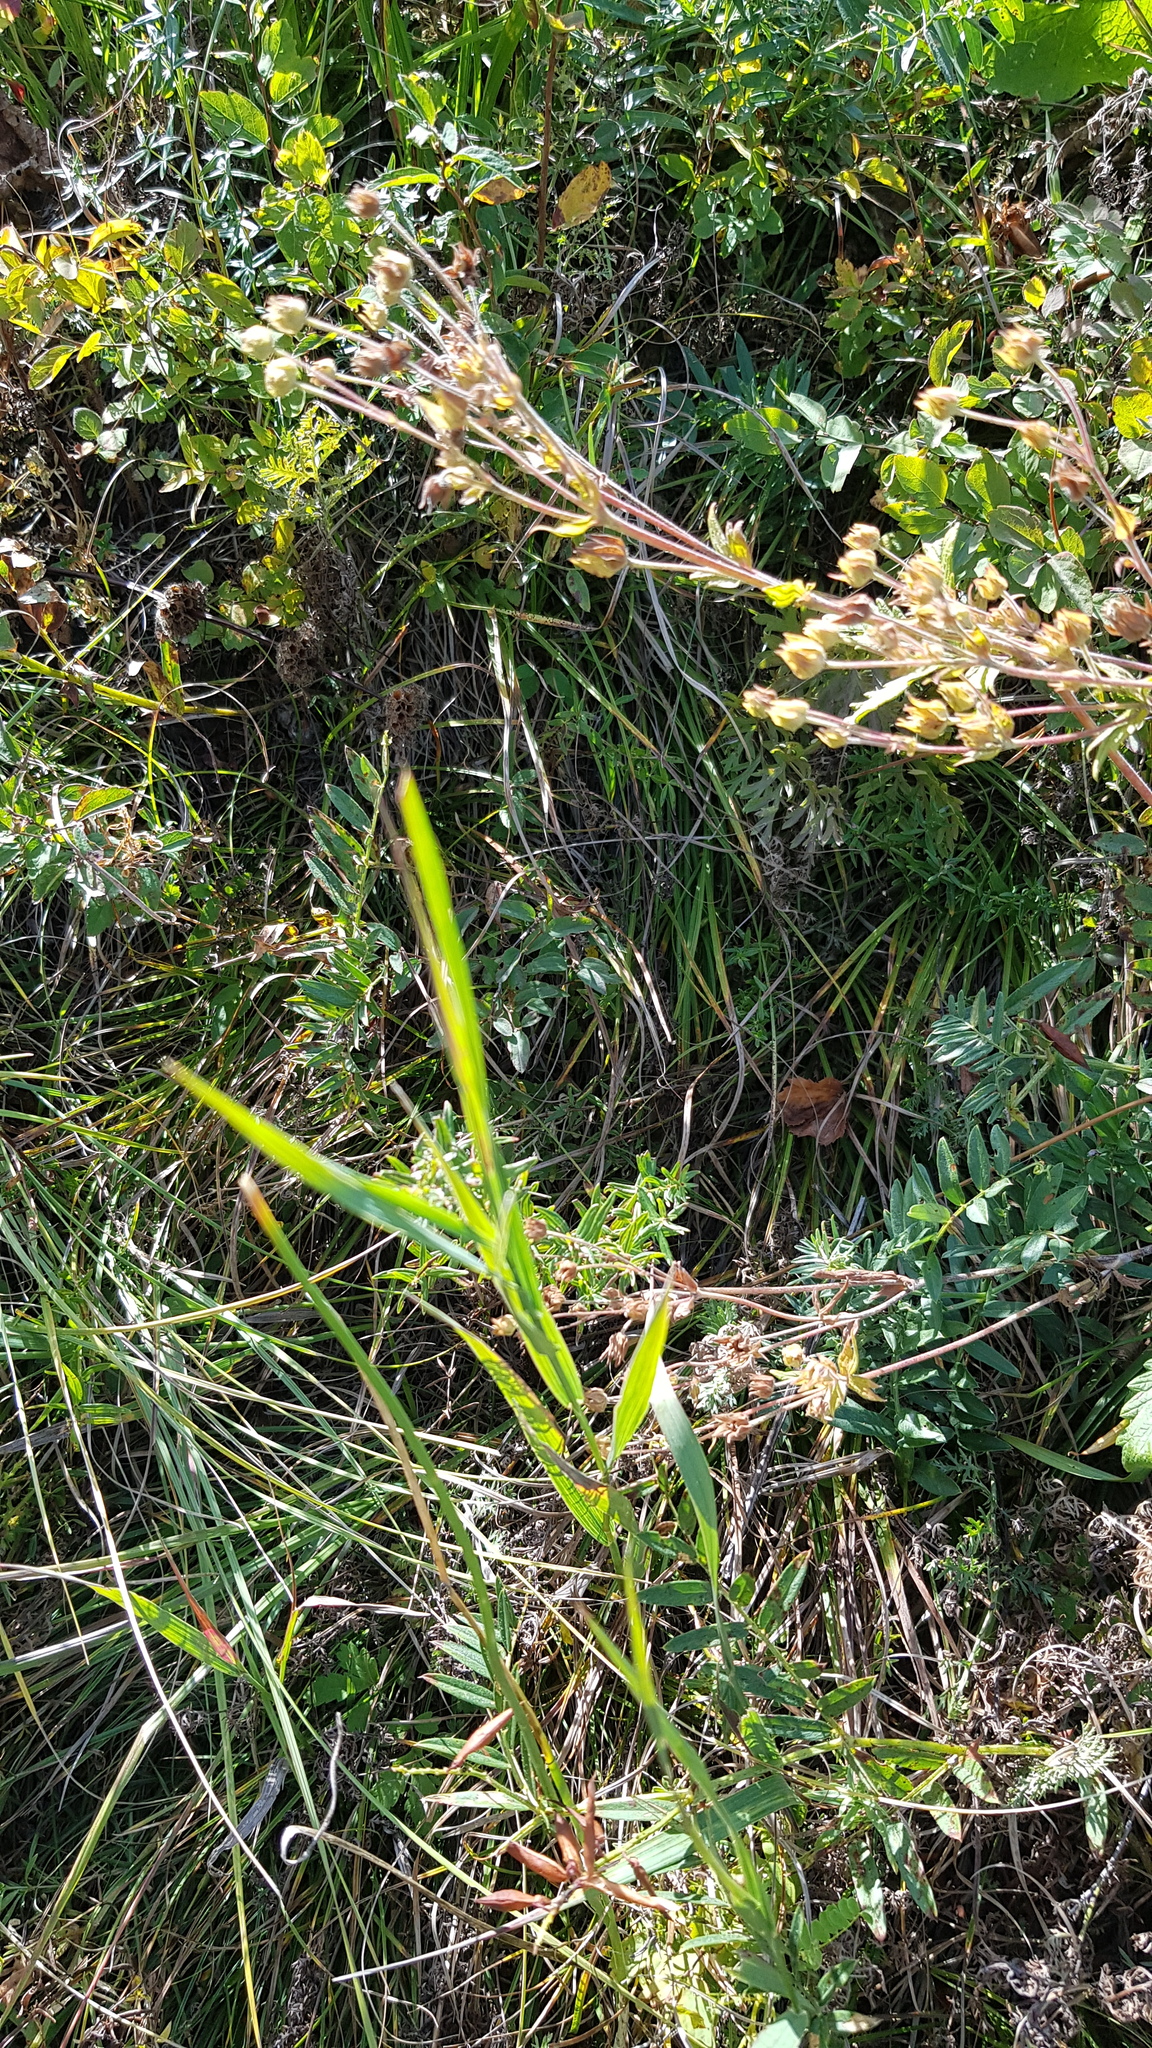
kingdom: Plantae
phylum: Tracheophyta
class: Magnoliopsida
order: Gentianales
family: Rubiaceae
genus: Galium
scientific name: Galium boreale
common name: Northern bedstraw
